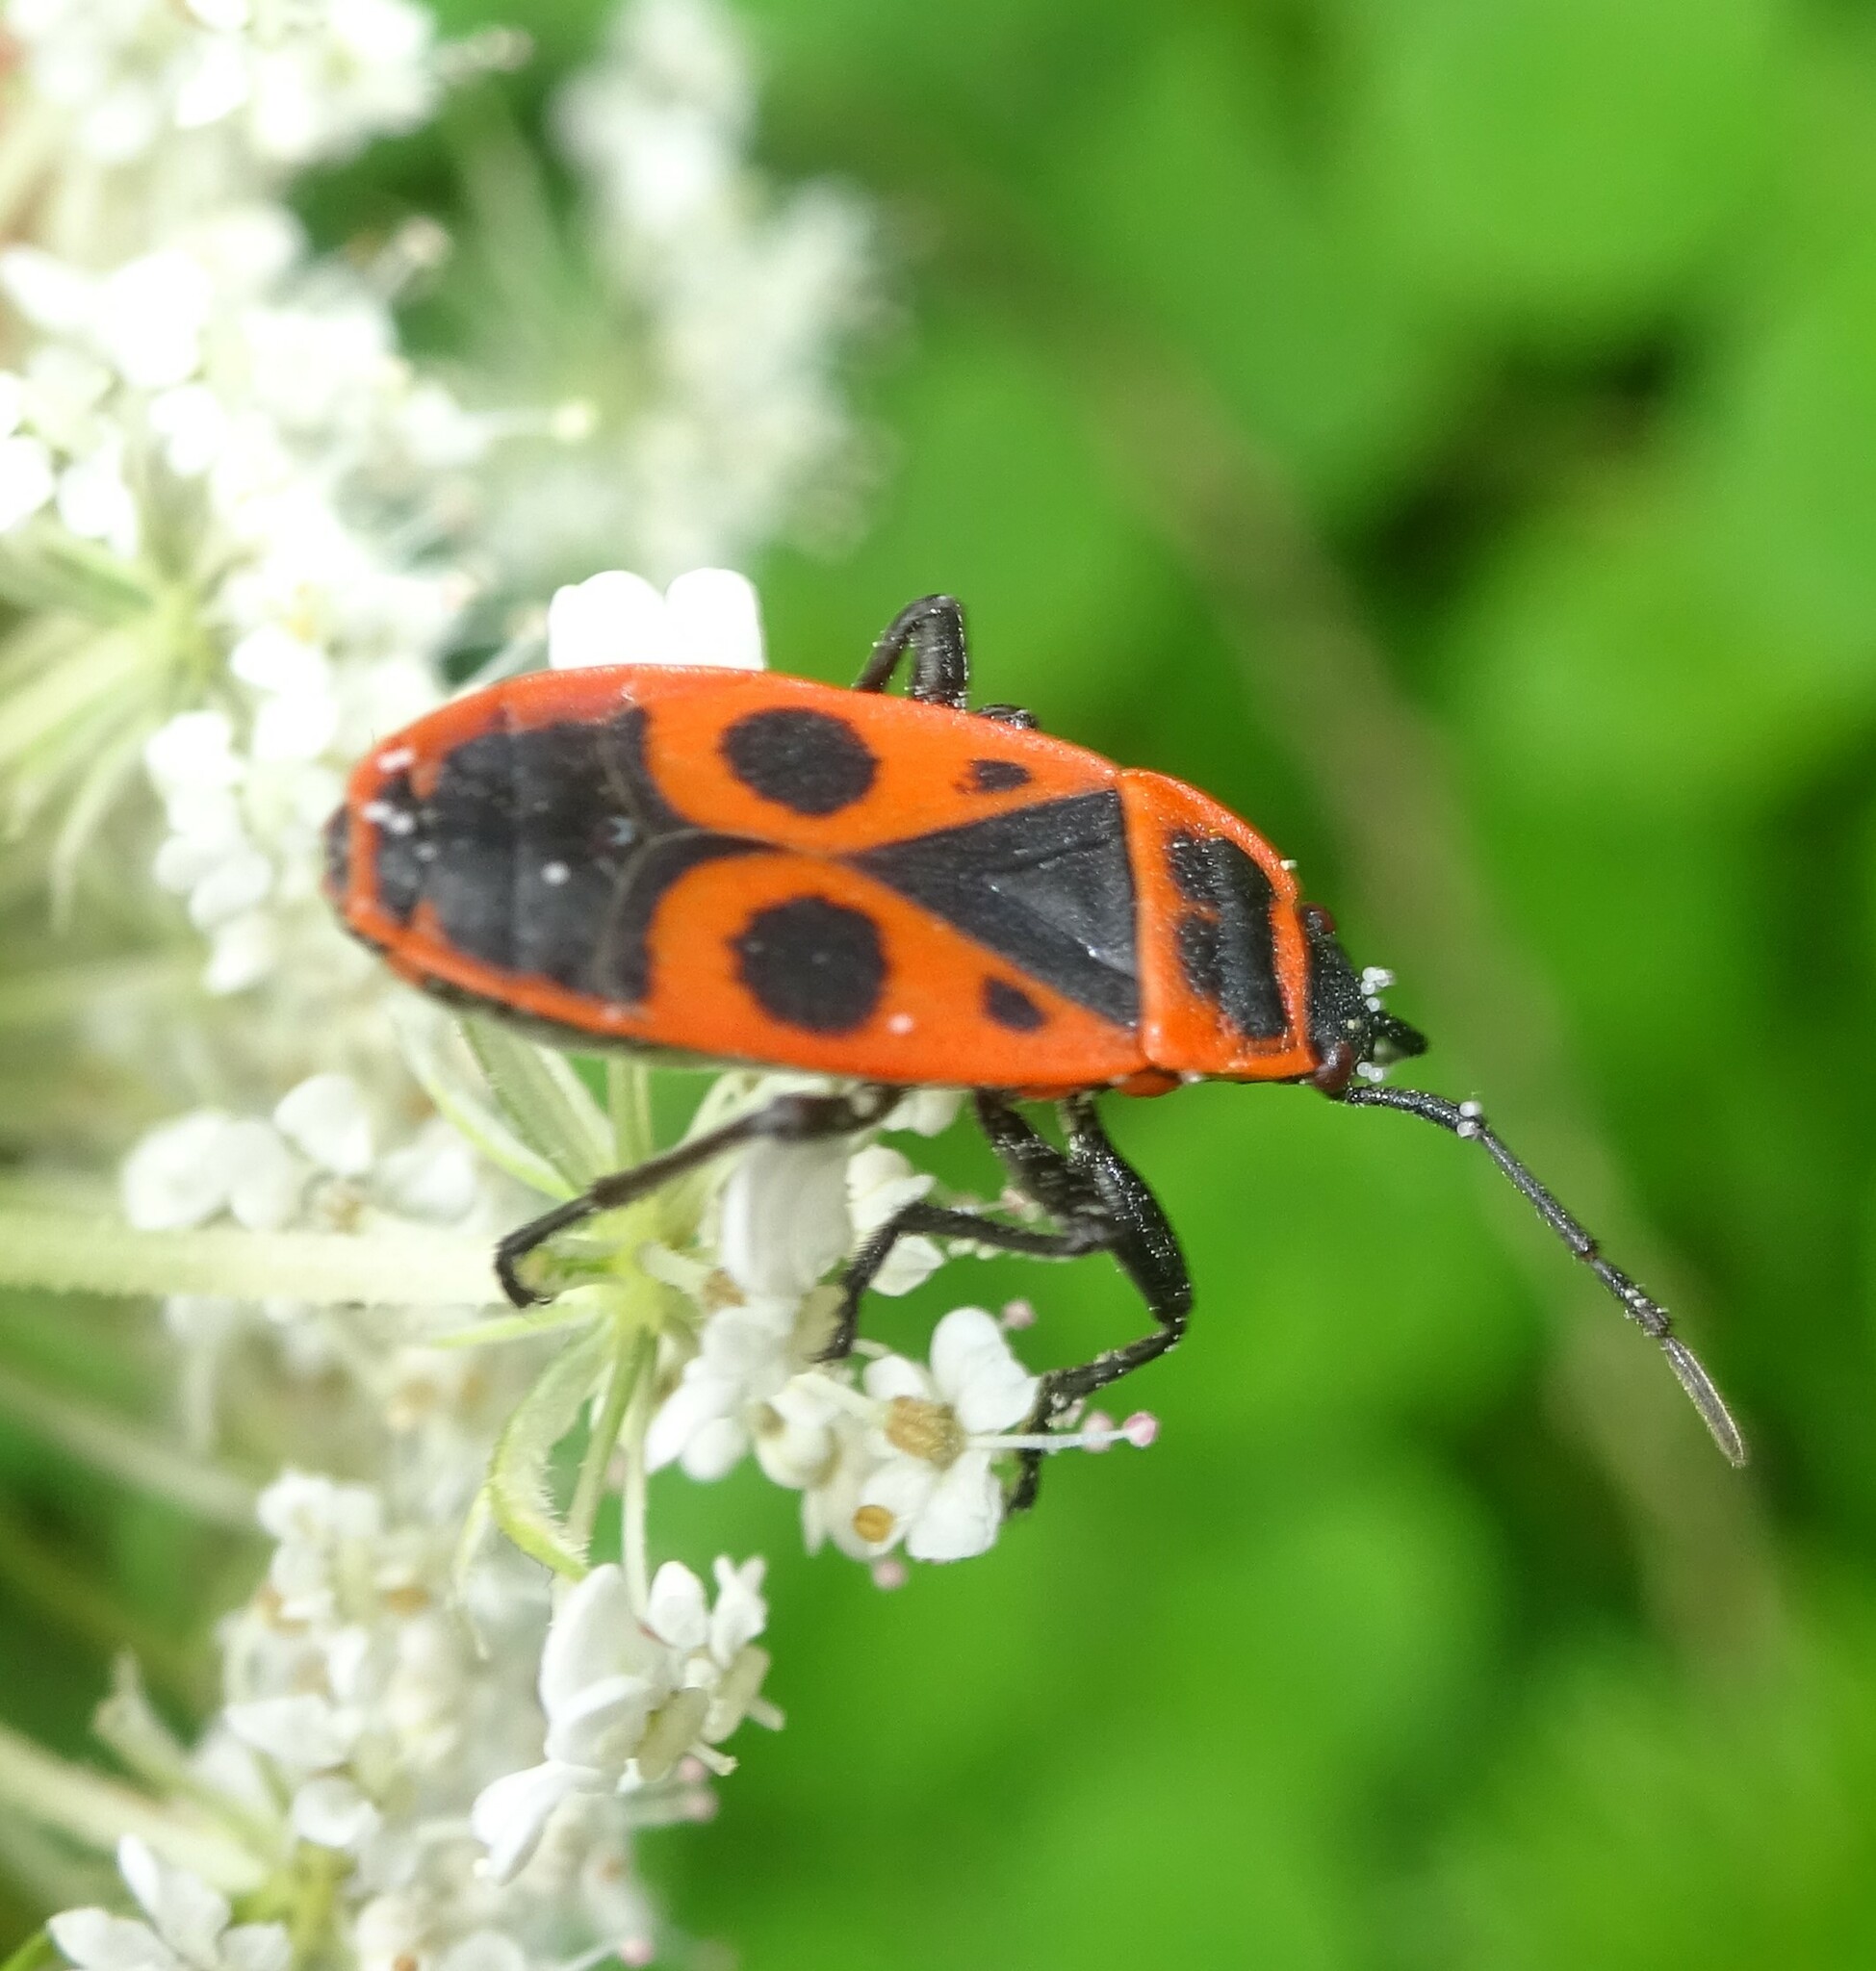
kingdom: Animalia
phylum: Arthropoda
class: Insecta
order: Hemiptera
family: Pyrrhocoridae
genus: Pyrrhocoris
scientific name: Pyrrhocoris apterus
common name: Firebug
